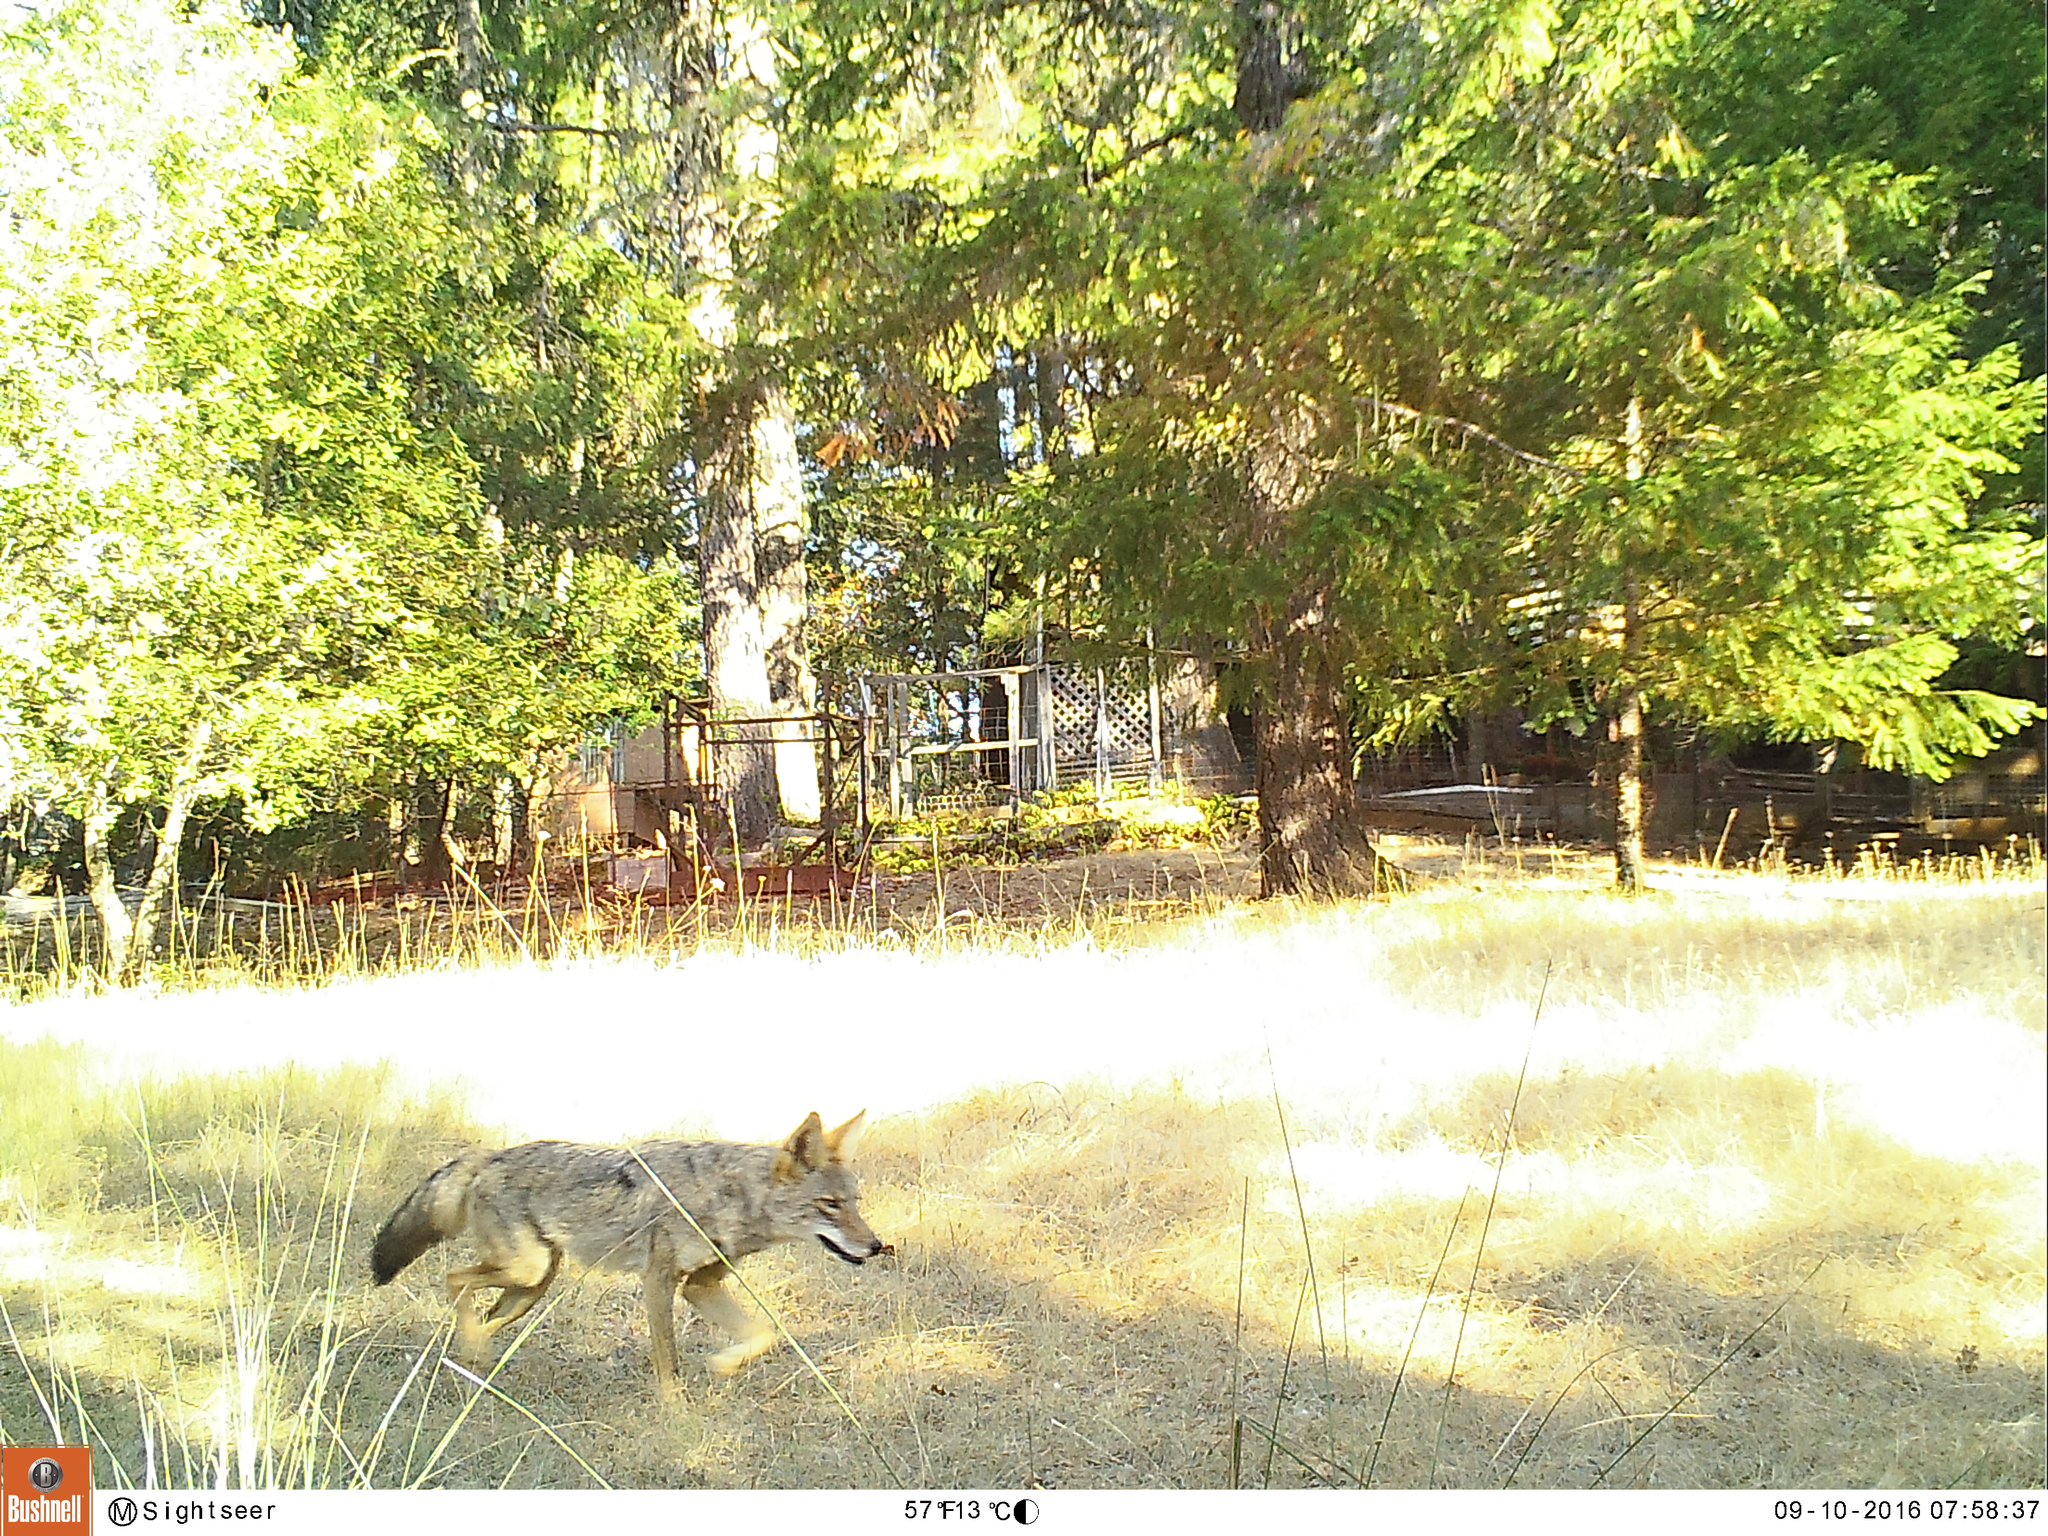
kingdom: Animalia
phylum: Chordata
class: Mammalia
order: Carnivora
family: Canidae
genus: Canis
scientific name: Canis latrans
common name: Coyote
